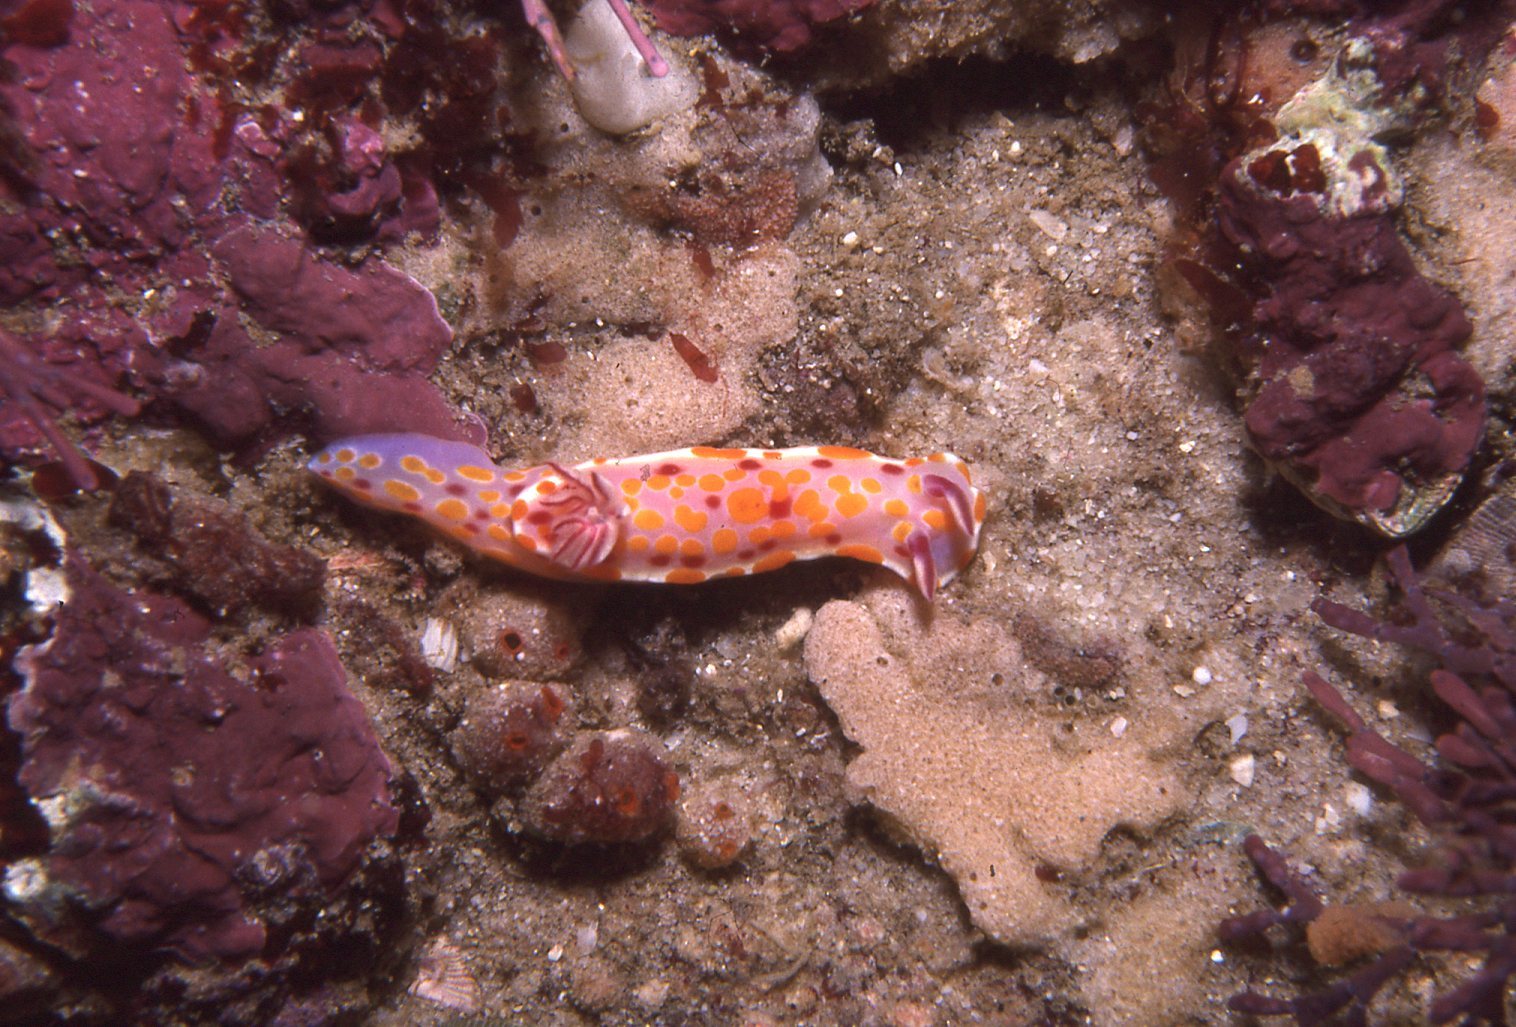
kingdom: Animalia
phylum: Mollusca
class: Gastropoda
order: Nudibranchia
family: Chromodorididae
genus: Ceratosoma
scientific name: Ceratosoma amoenum
